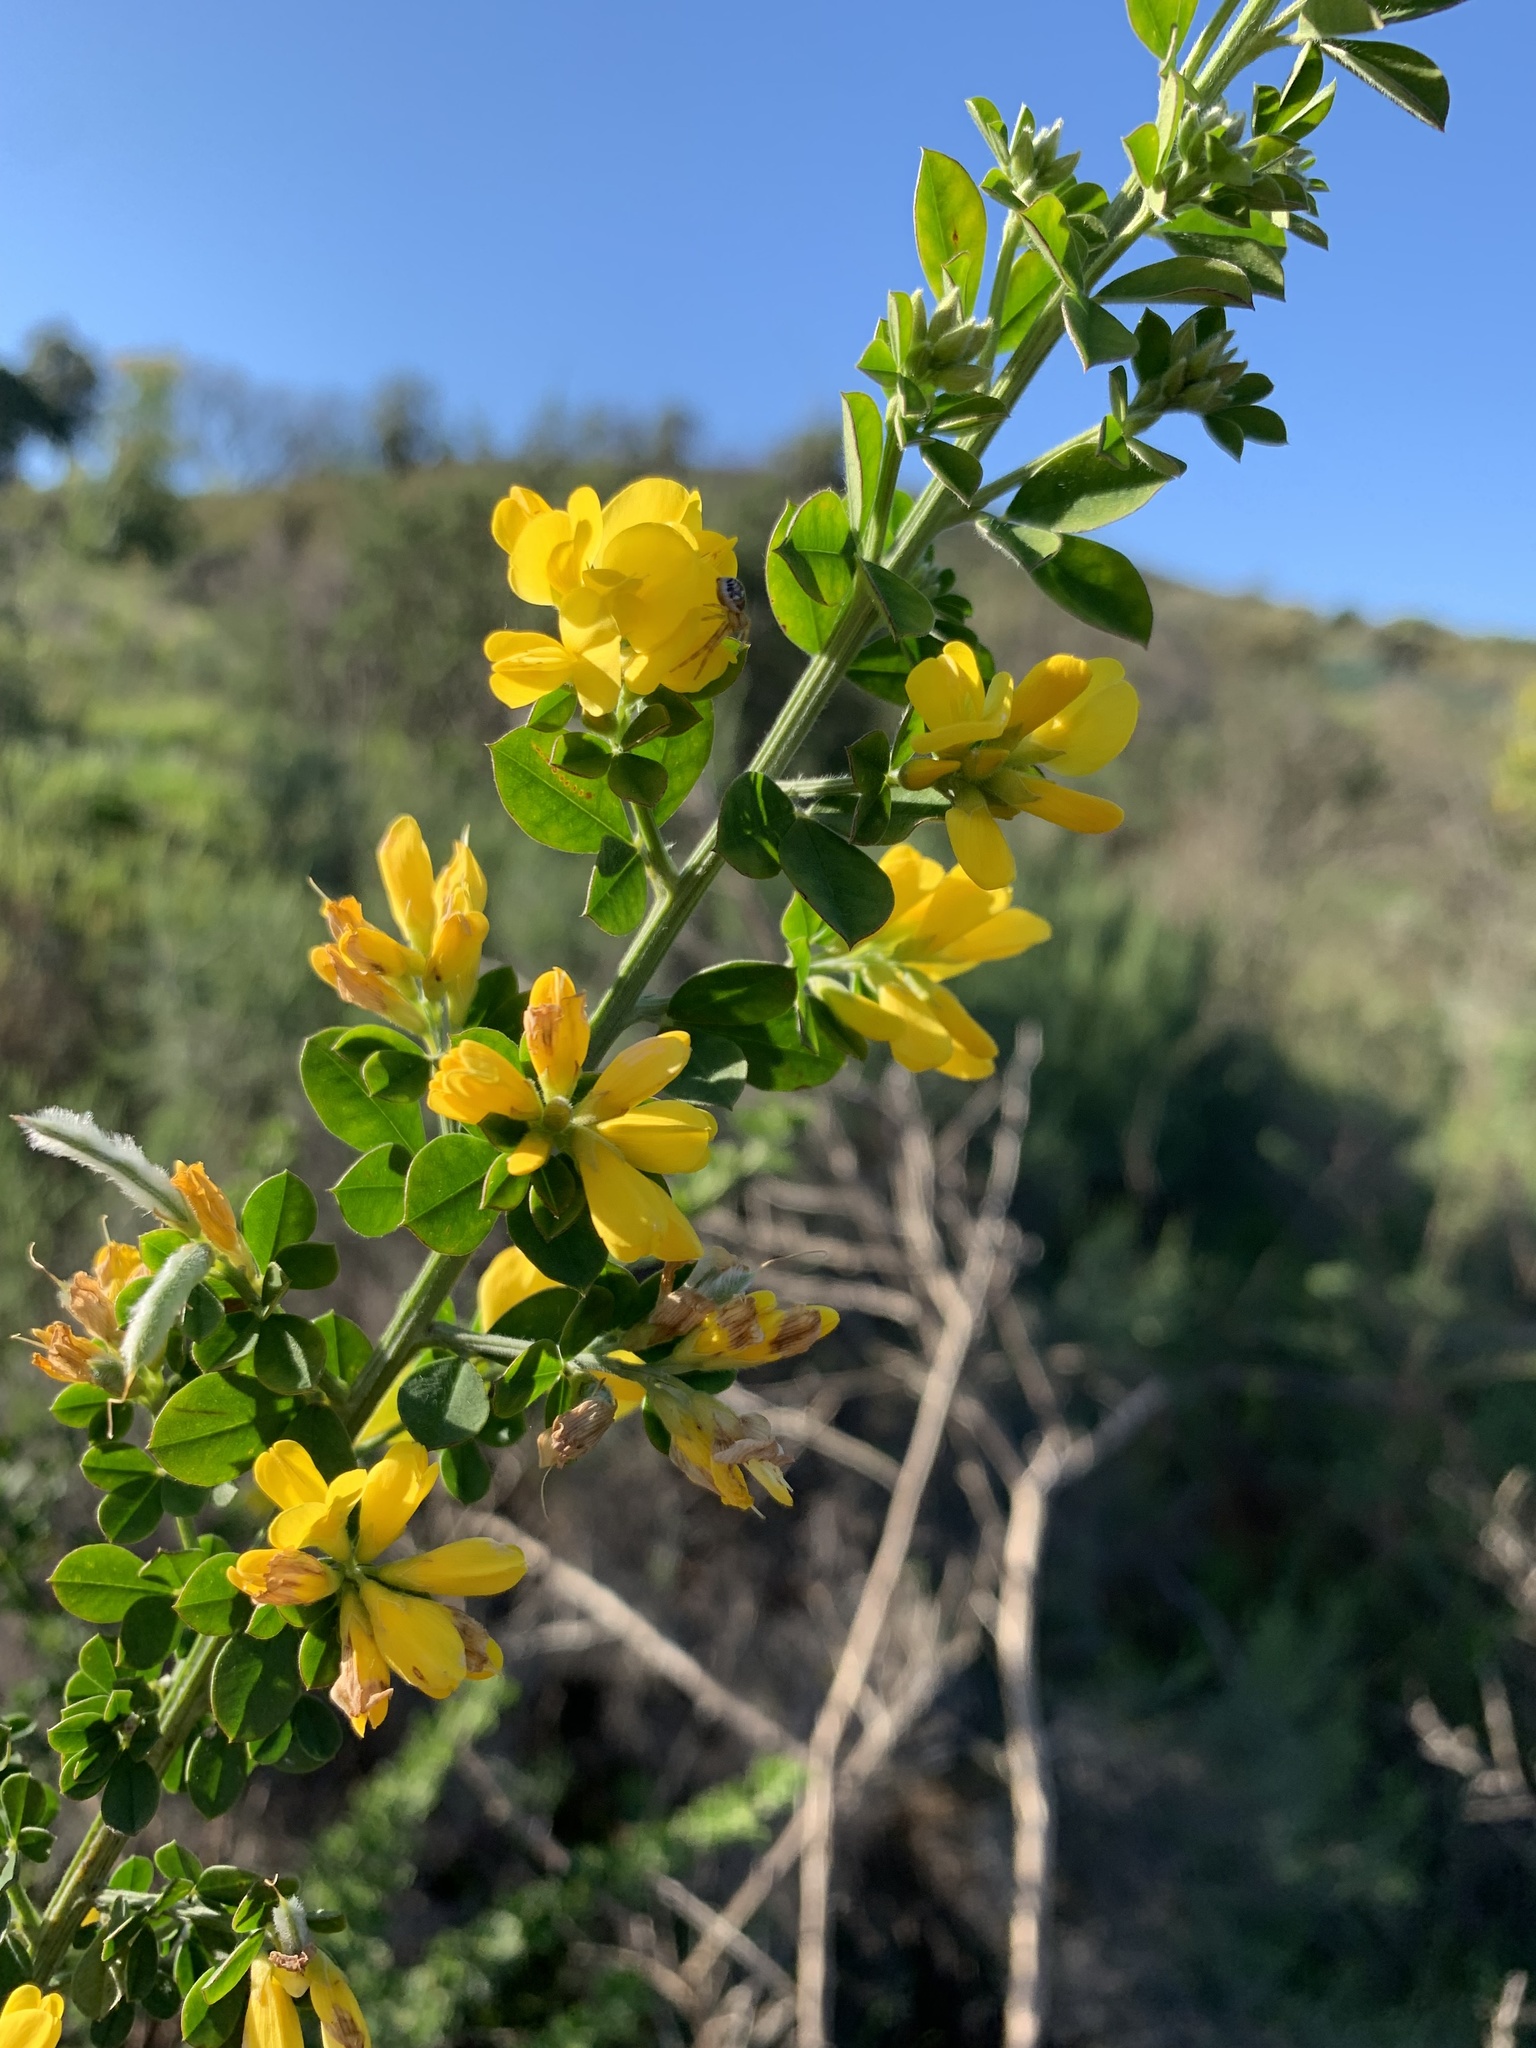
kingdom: Plantae
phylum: Tracheophyta
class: Magnoliopsida
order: Fabales
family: Fabaceae
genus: Genista
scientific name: Genista monspessulana
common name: Montpellier broom
